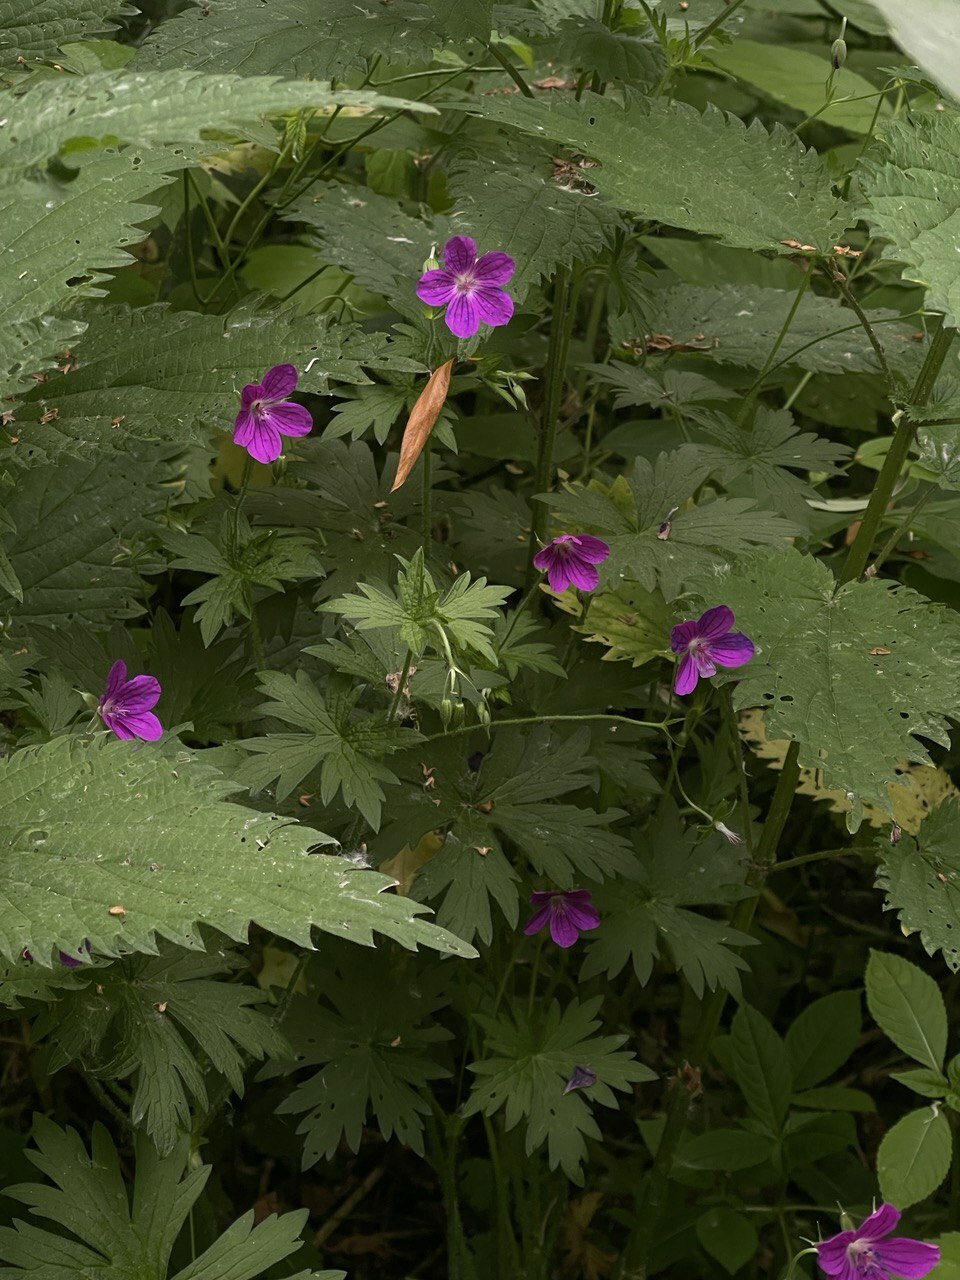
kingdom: Plantae
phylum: Tracheophyta
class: Magnoliopsida
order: Geraniales
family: Geraniaceae
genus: Geranium
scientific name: Geranium palustre
